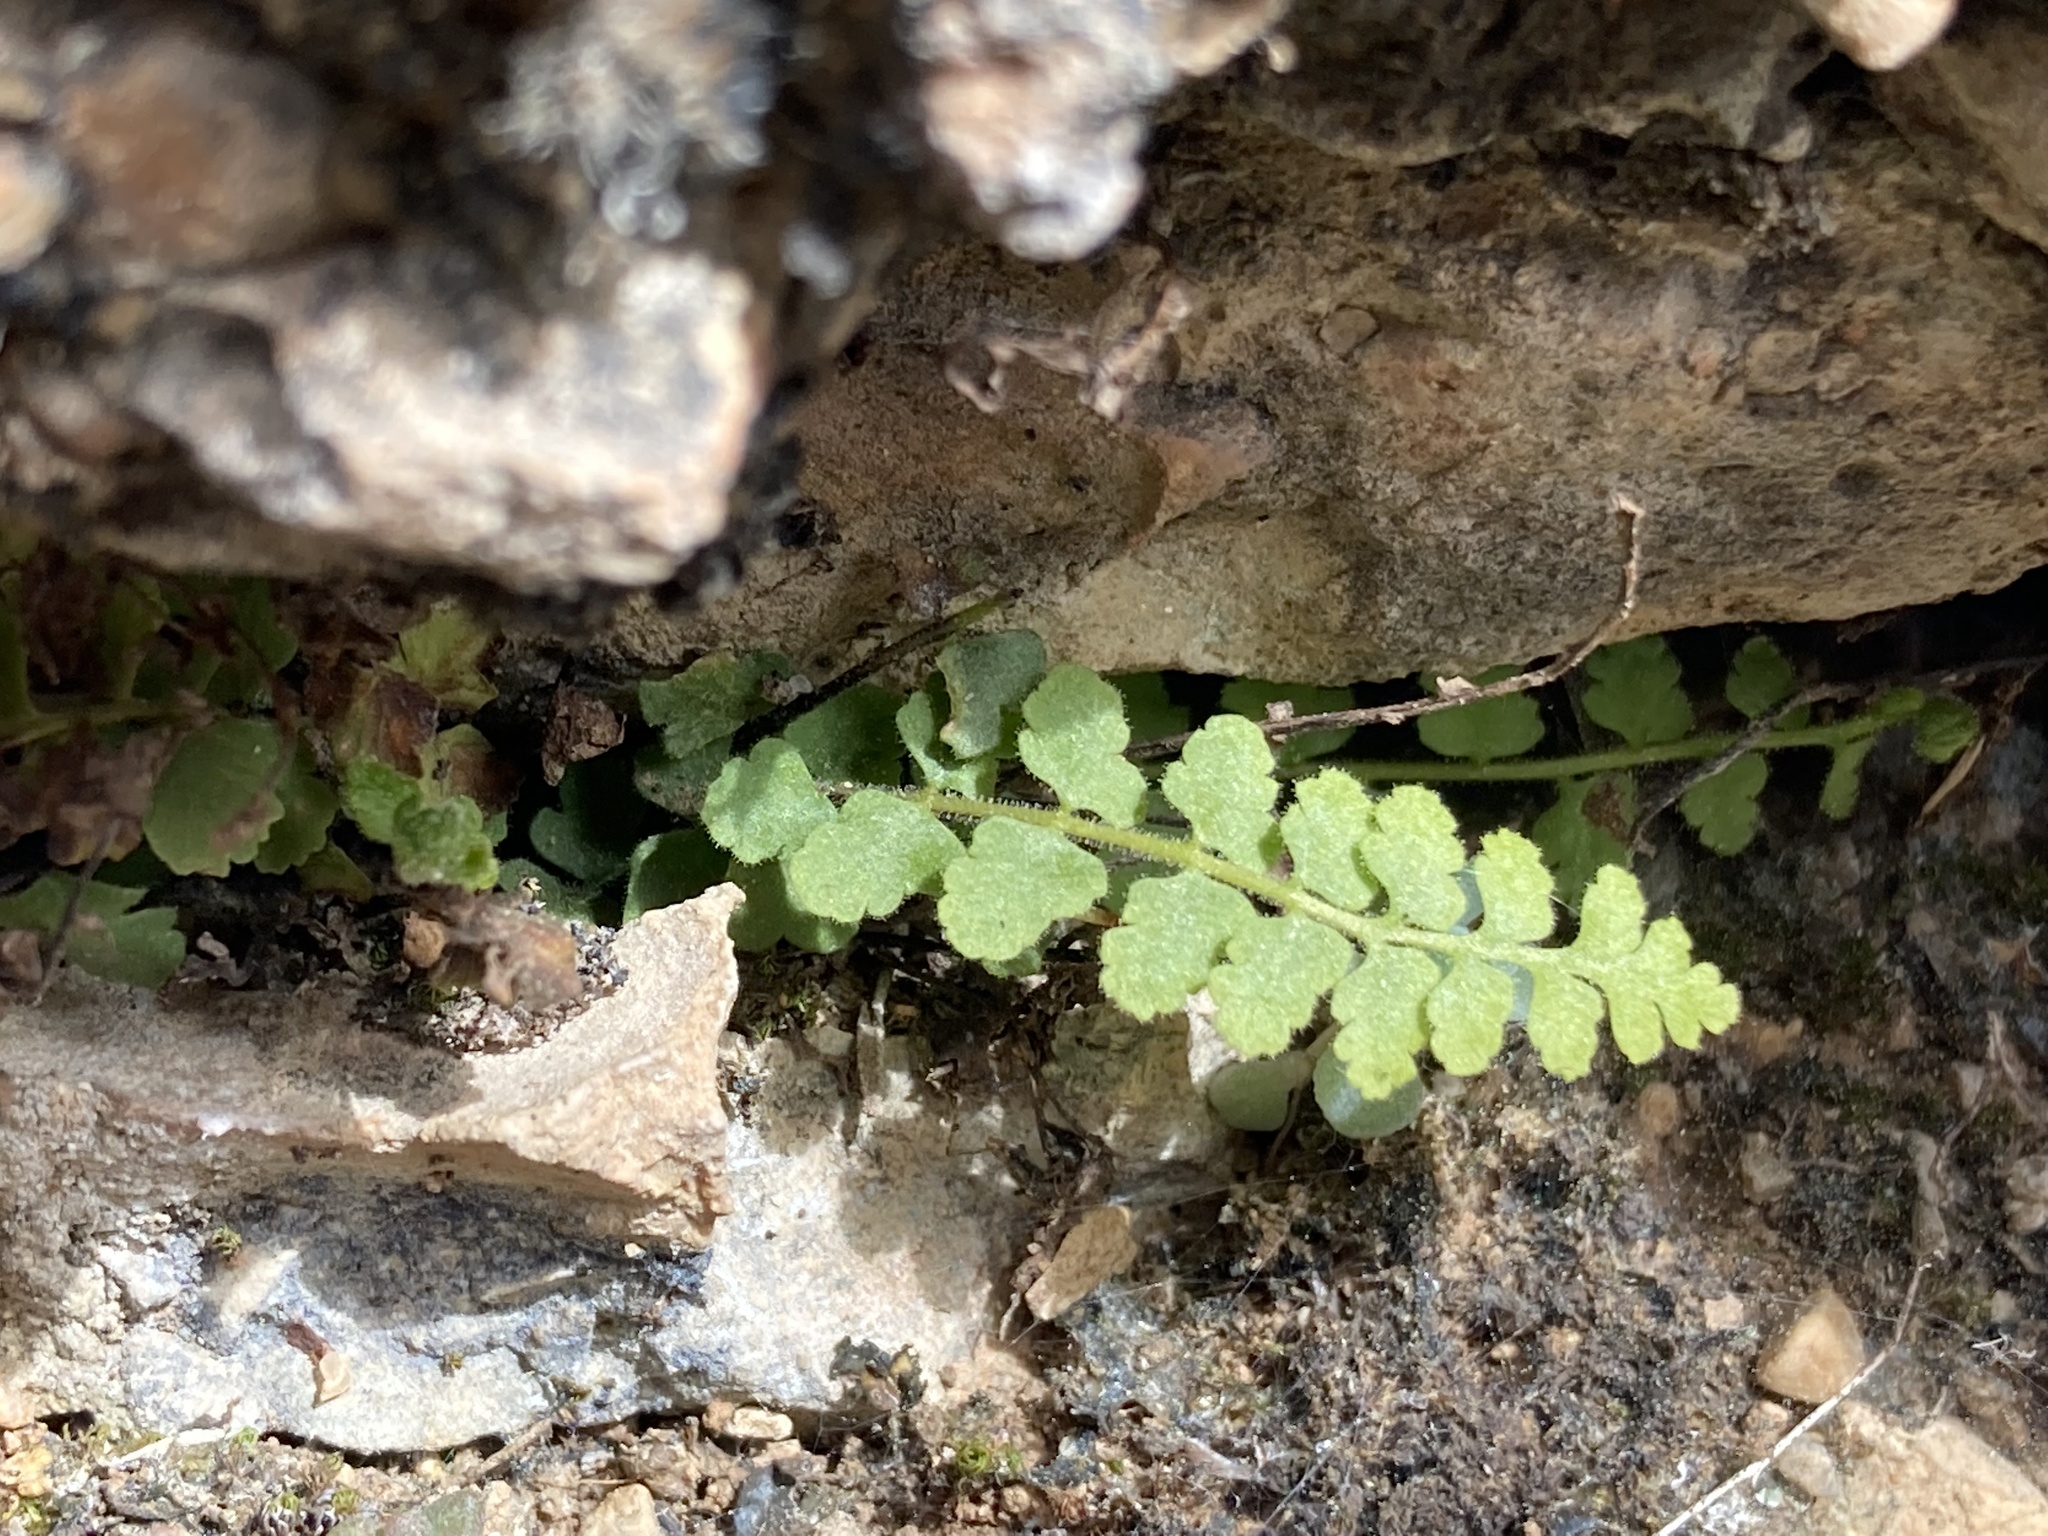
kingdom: Plantae
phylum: Tracheophyta
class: Polypodiopsida
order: Polypodiales
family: Aspleniaceae
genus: Asplenium
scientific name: Asplenium petrarchae
